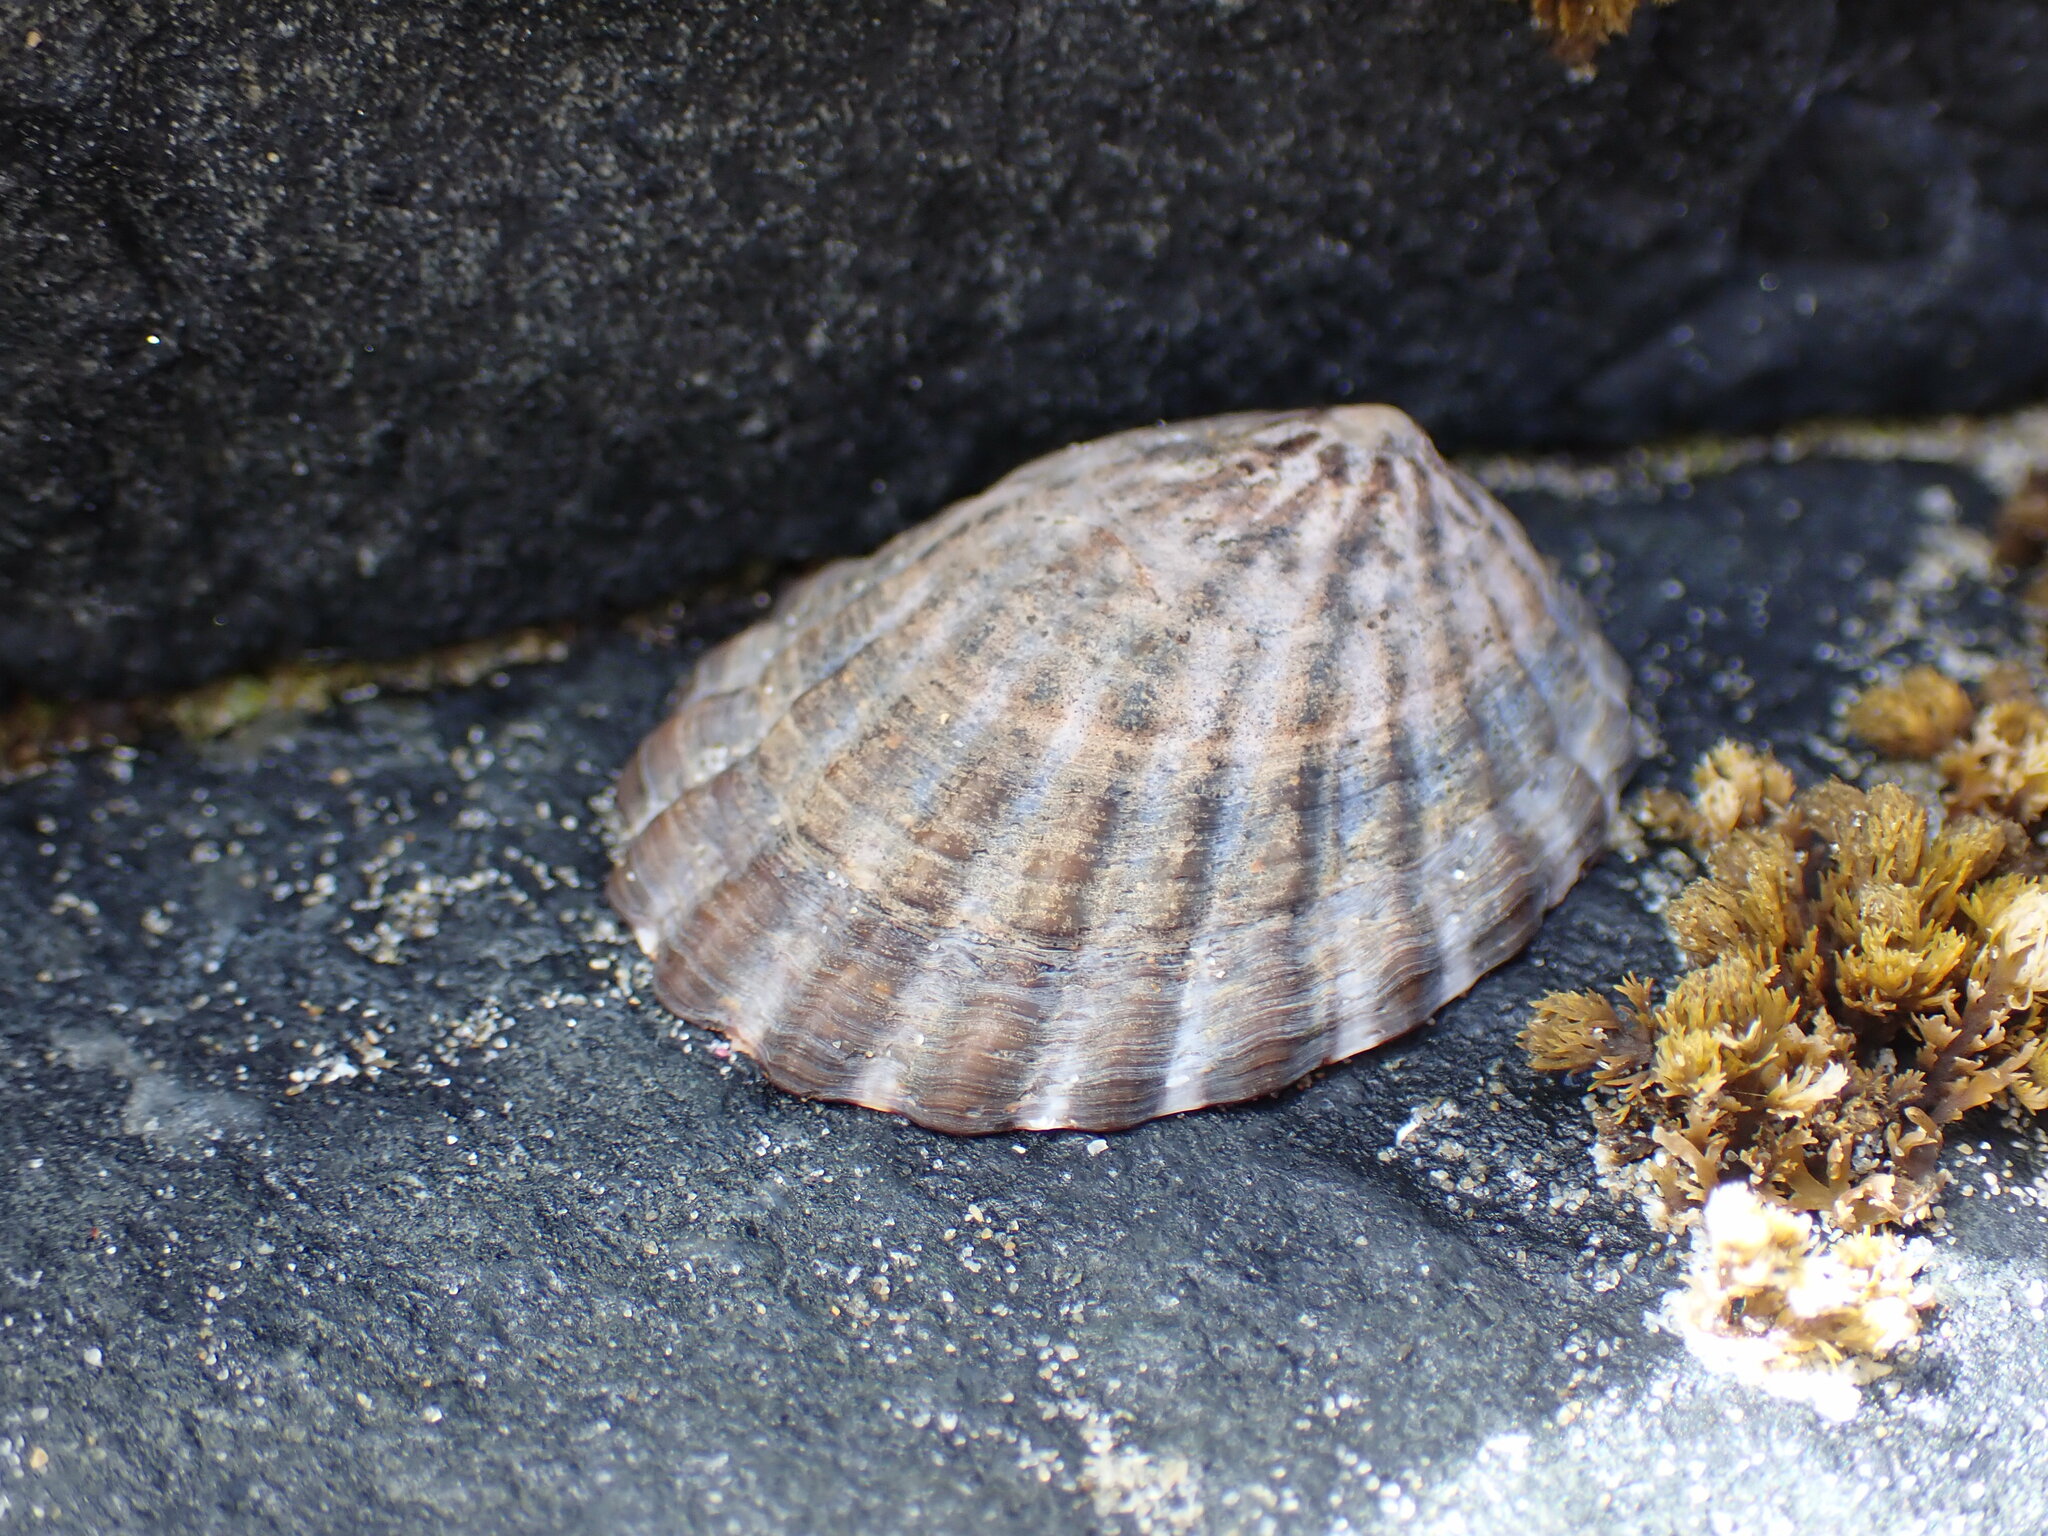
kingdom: Animalia
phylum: Mollusca
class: Gastropoda
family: Nacellidae
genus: Cellana
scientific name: Cellana strigilis
